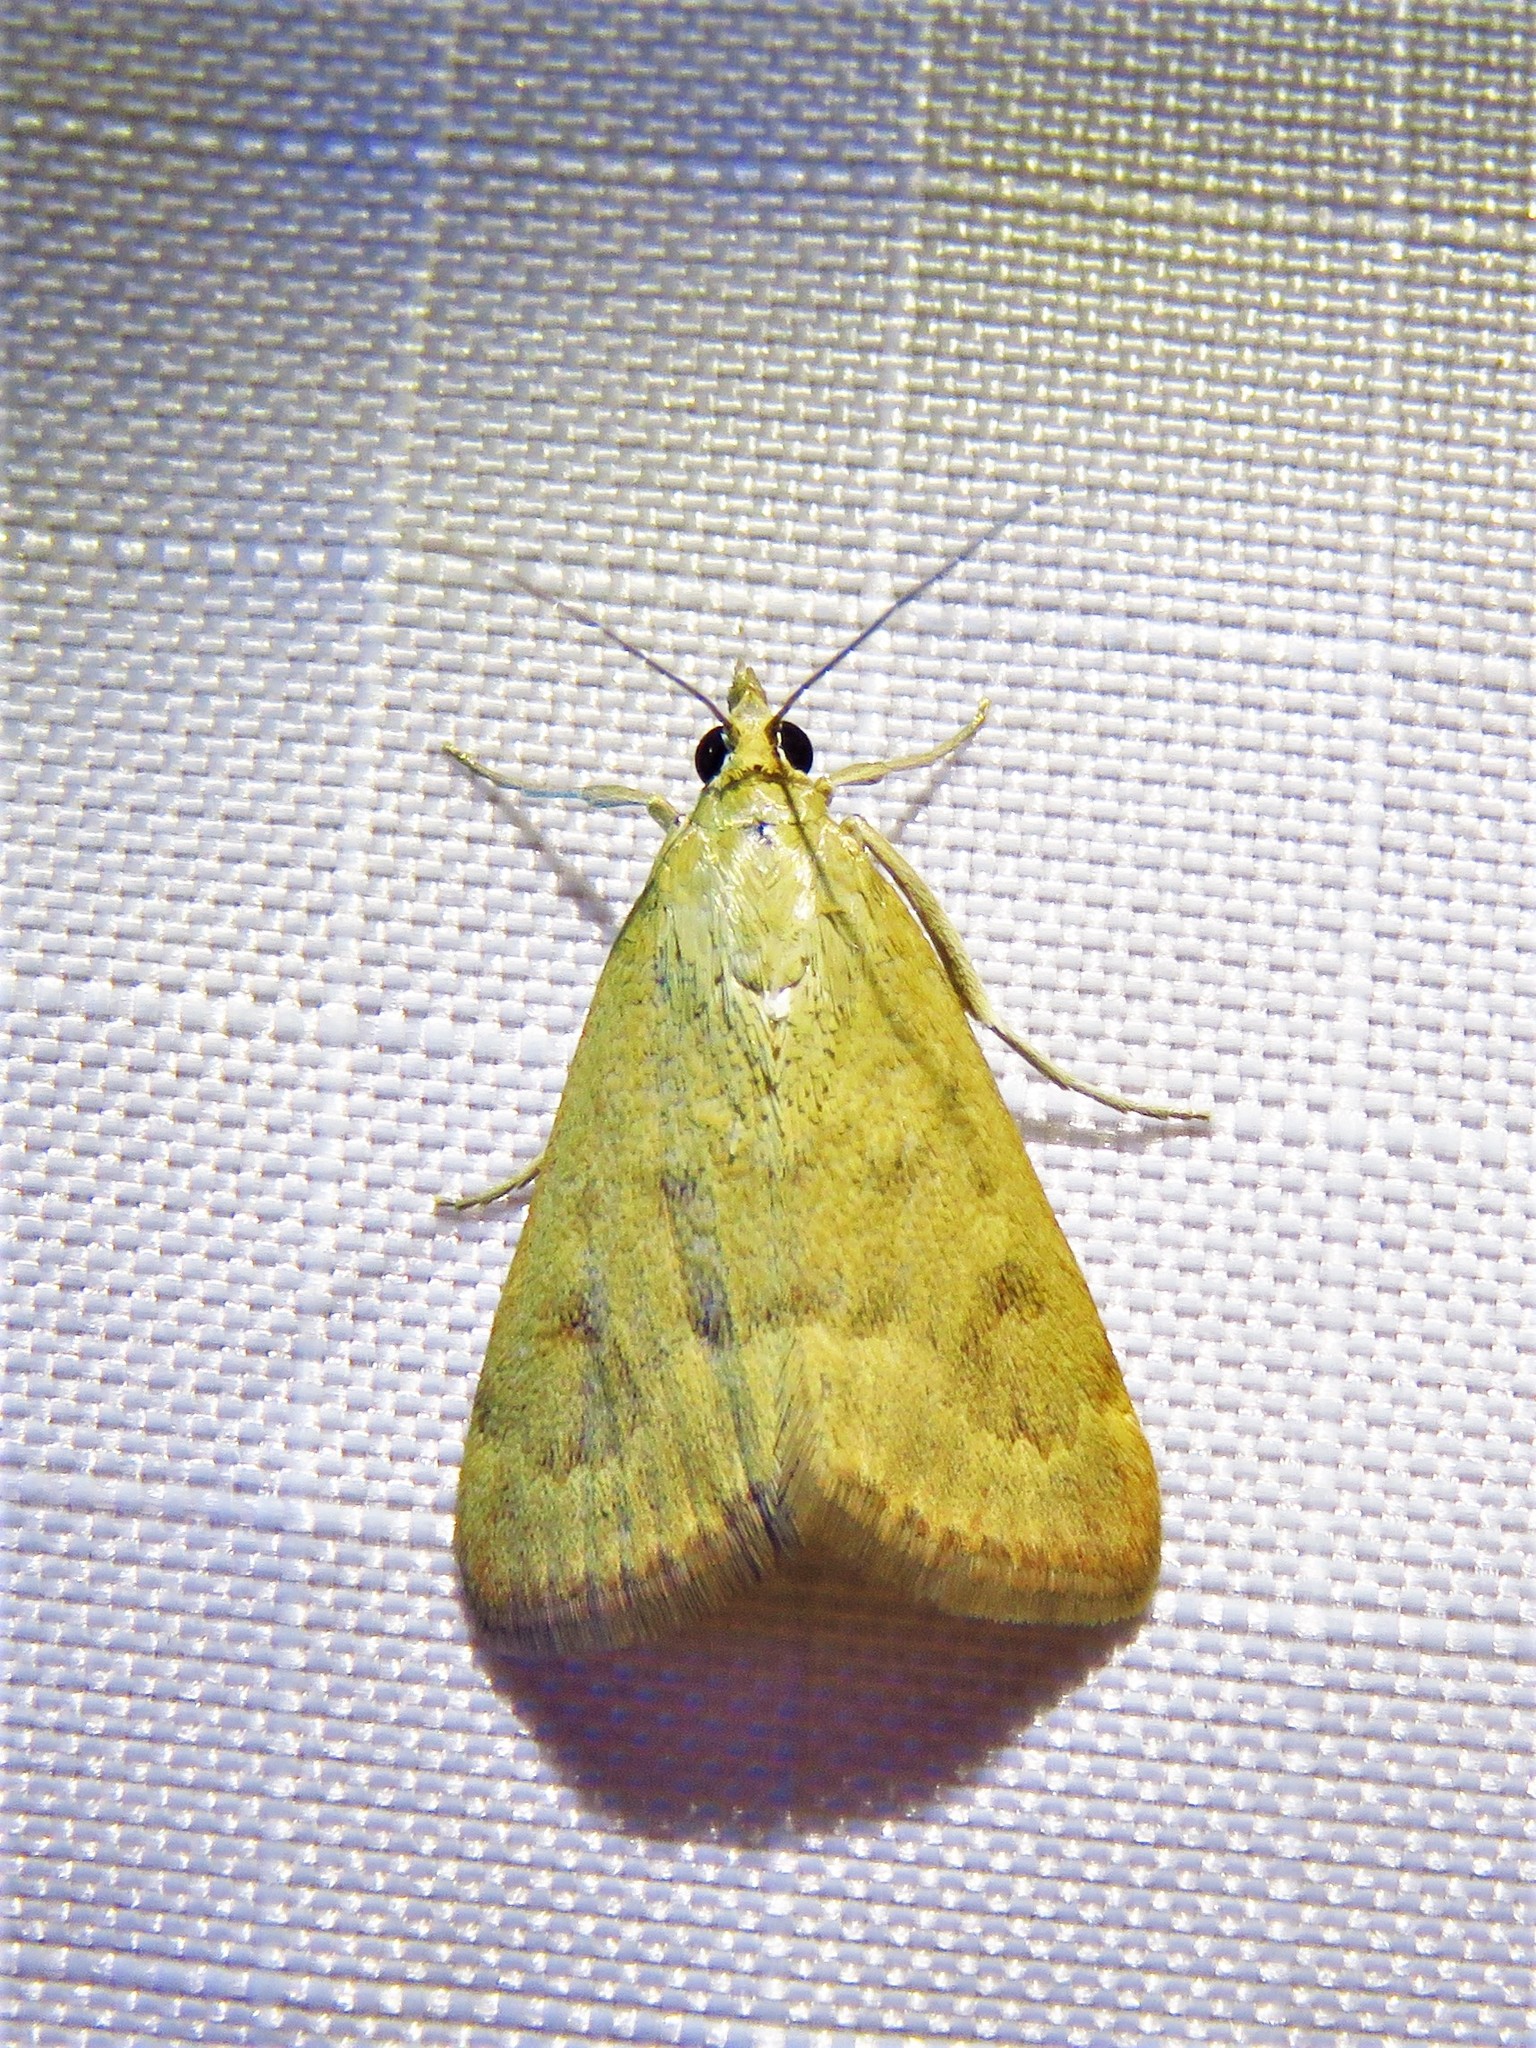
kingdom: Animalia
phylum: Arthropoda
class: Insecta
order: Lepidoptera
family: Crambidae
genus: Achyra
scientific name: Achyra rantalis
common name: Garden webworm
